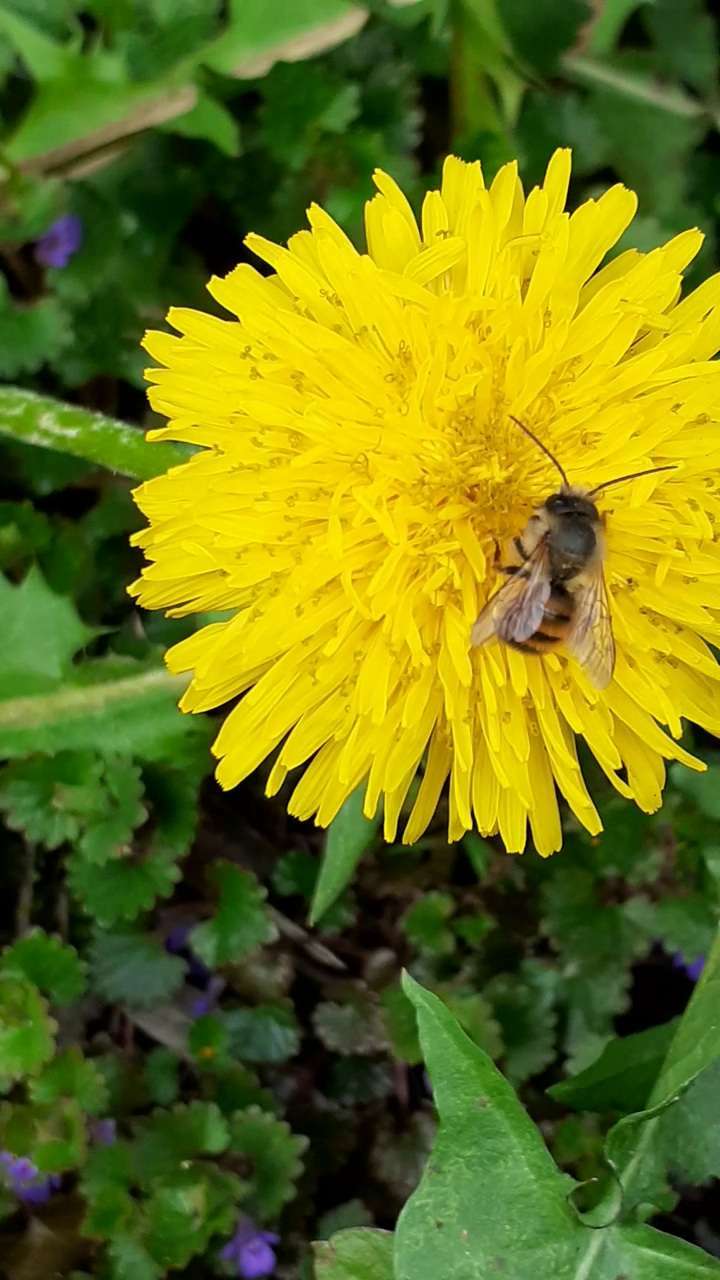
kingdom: Animalia
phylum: Arthropoda
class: Insecta
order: Hymenoptera
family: Megachilidae
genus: Osmia
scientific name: Osmia bicornis
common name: Red mason bee
